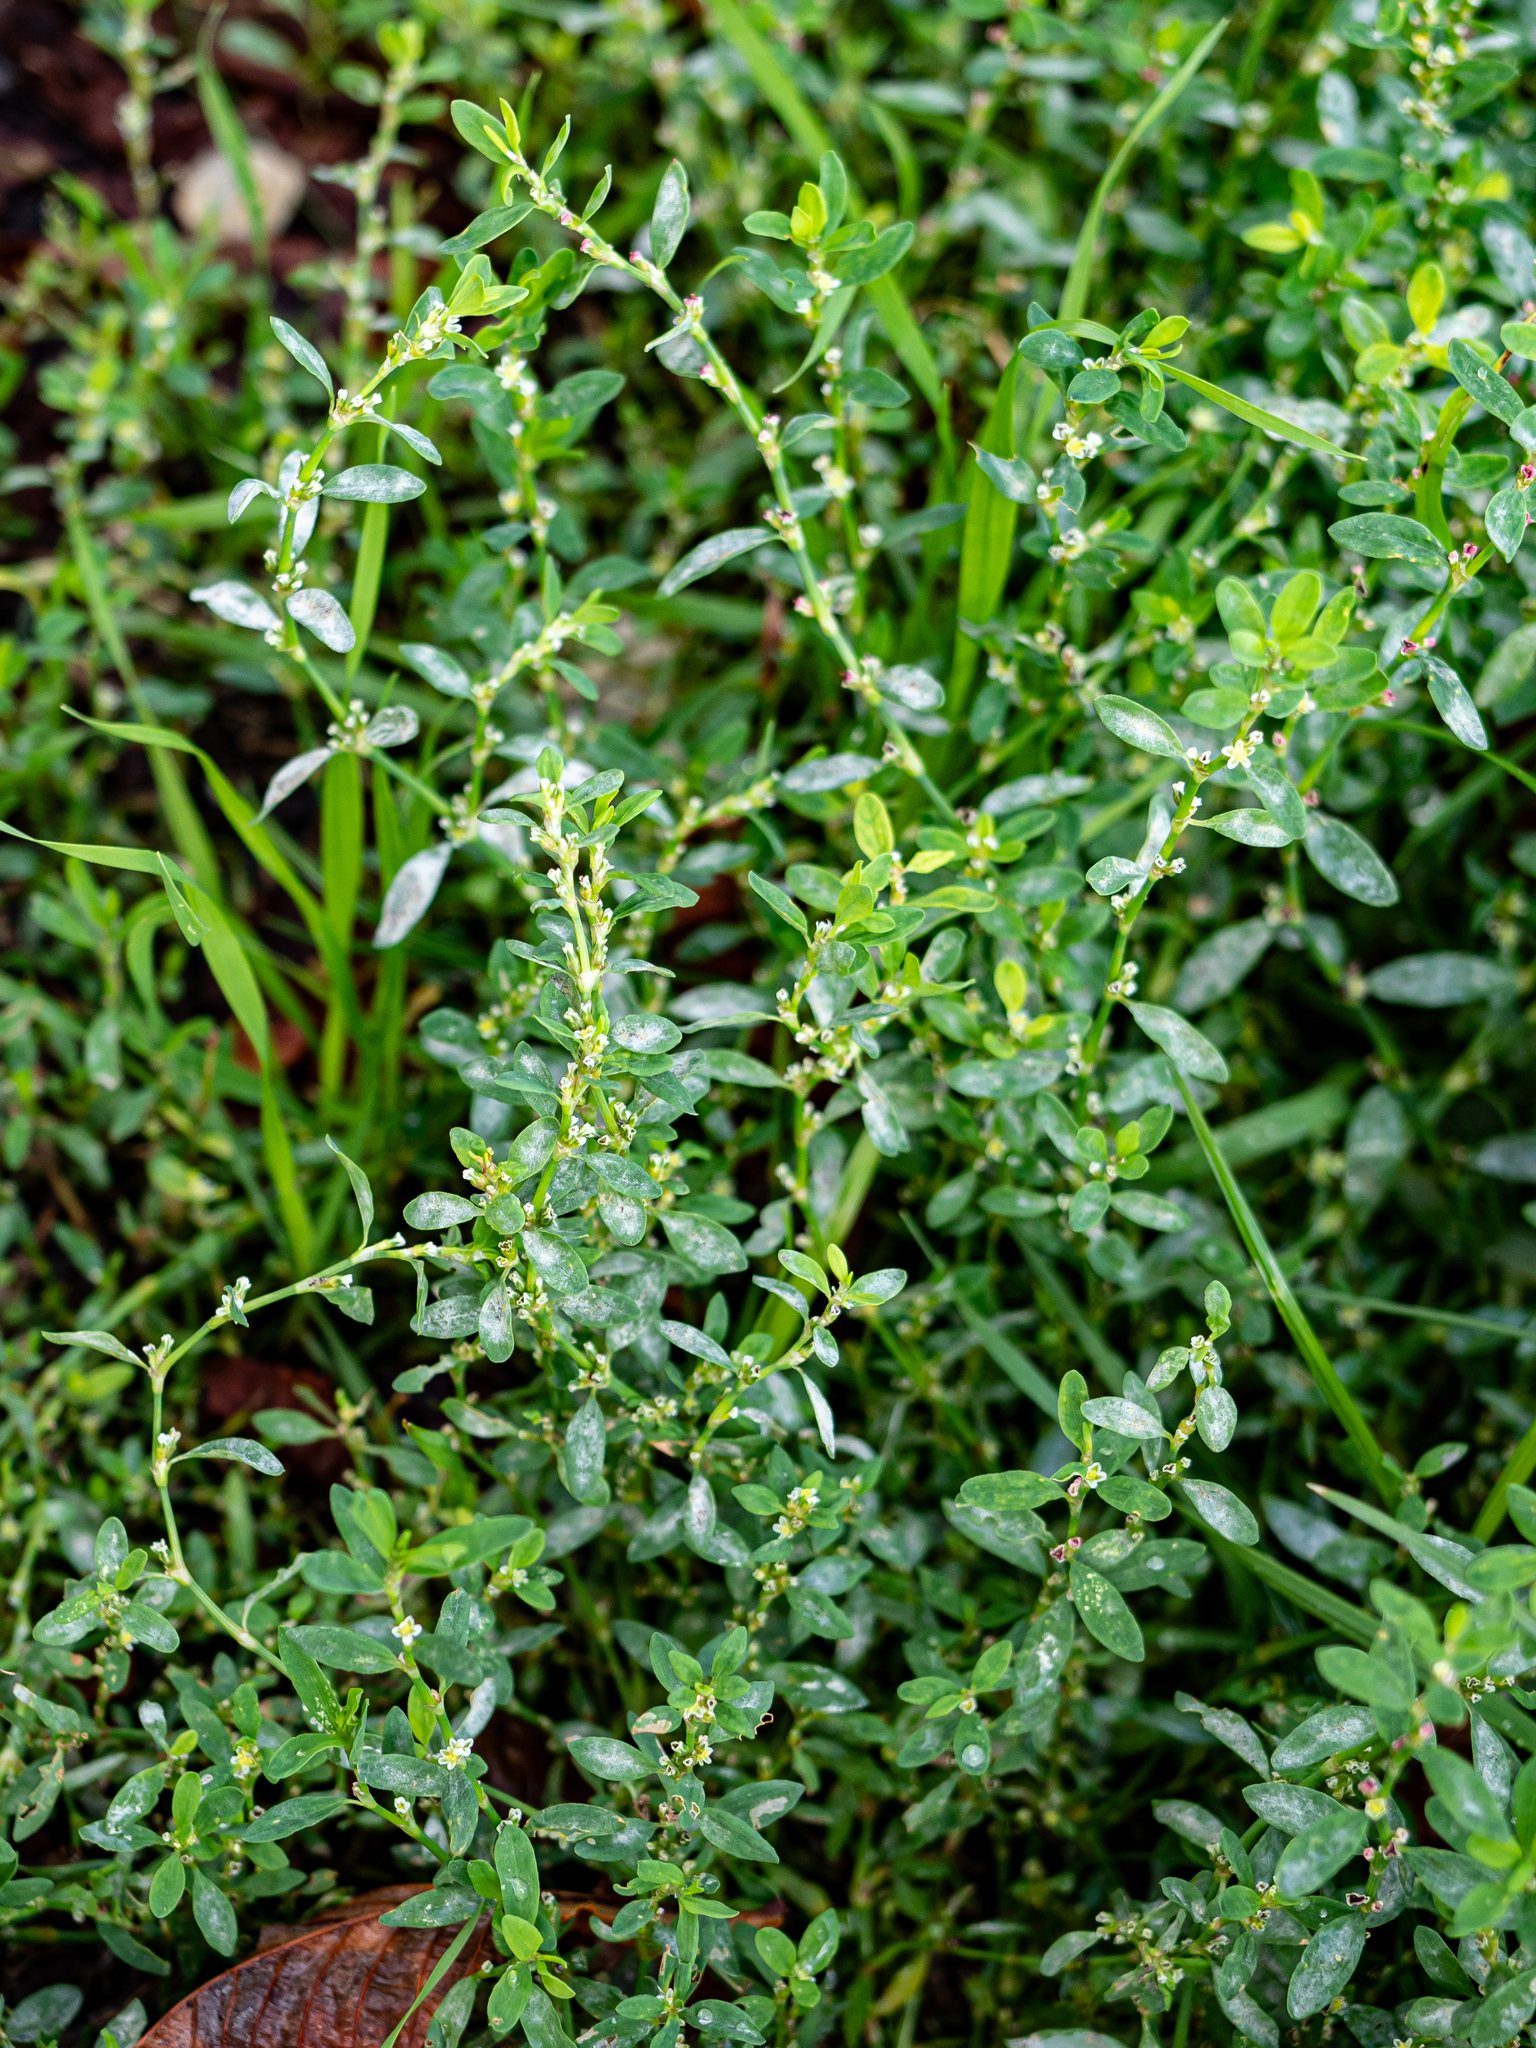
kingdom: Fungi
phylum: Ascomycota
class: Leotiomycetes
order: Helotiales
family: Erysiphaceae
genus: Erysiphe
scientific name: Erysiphe polygoni
